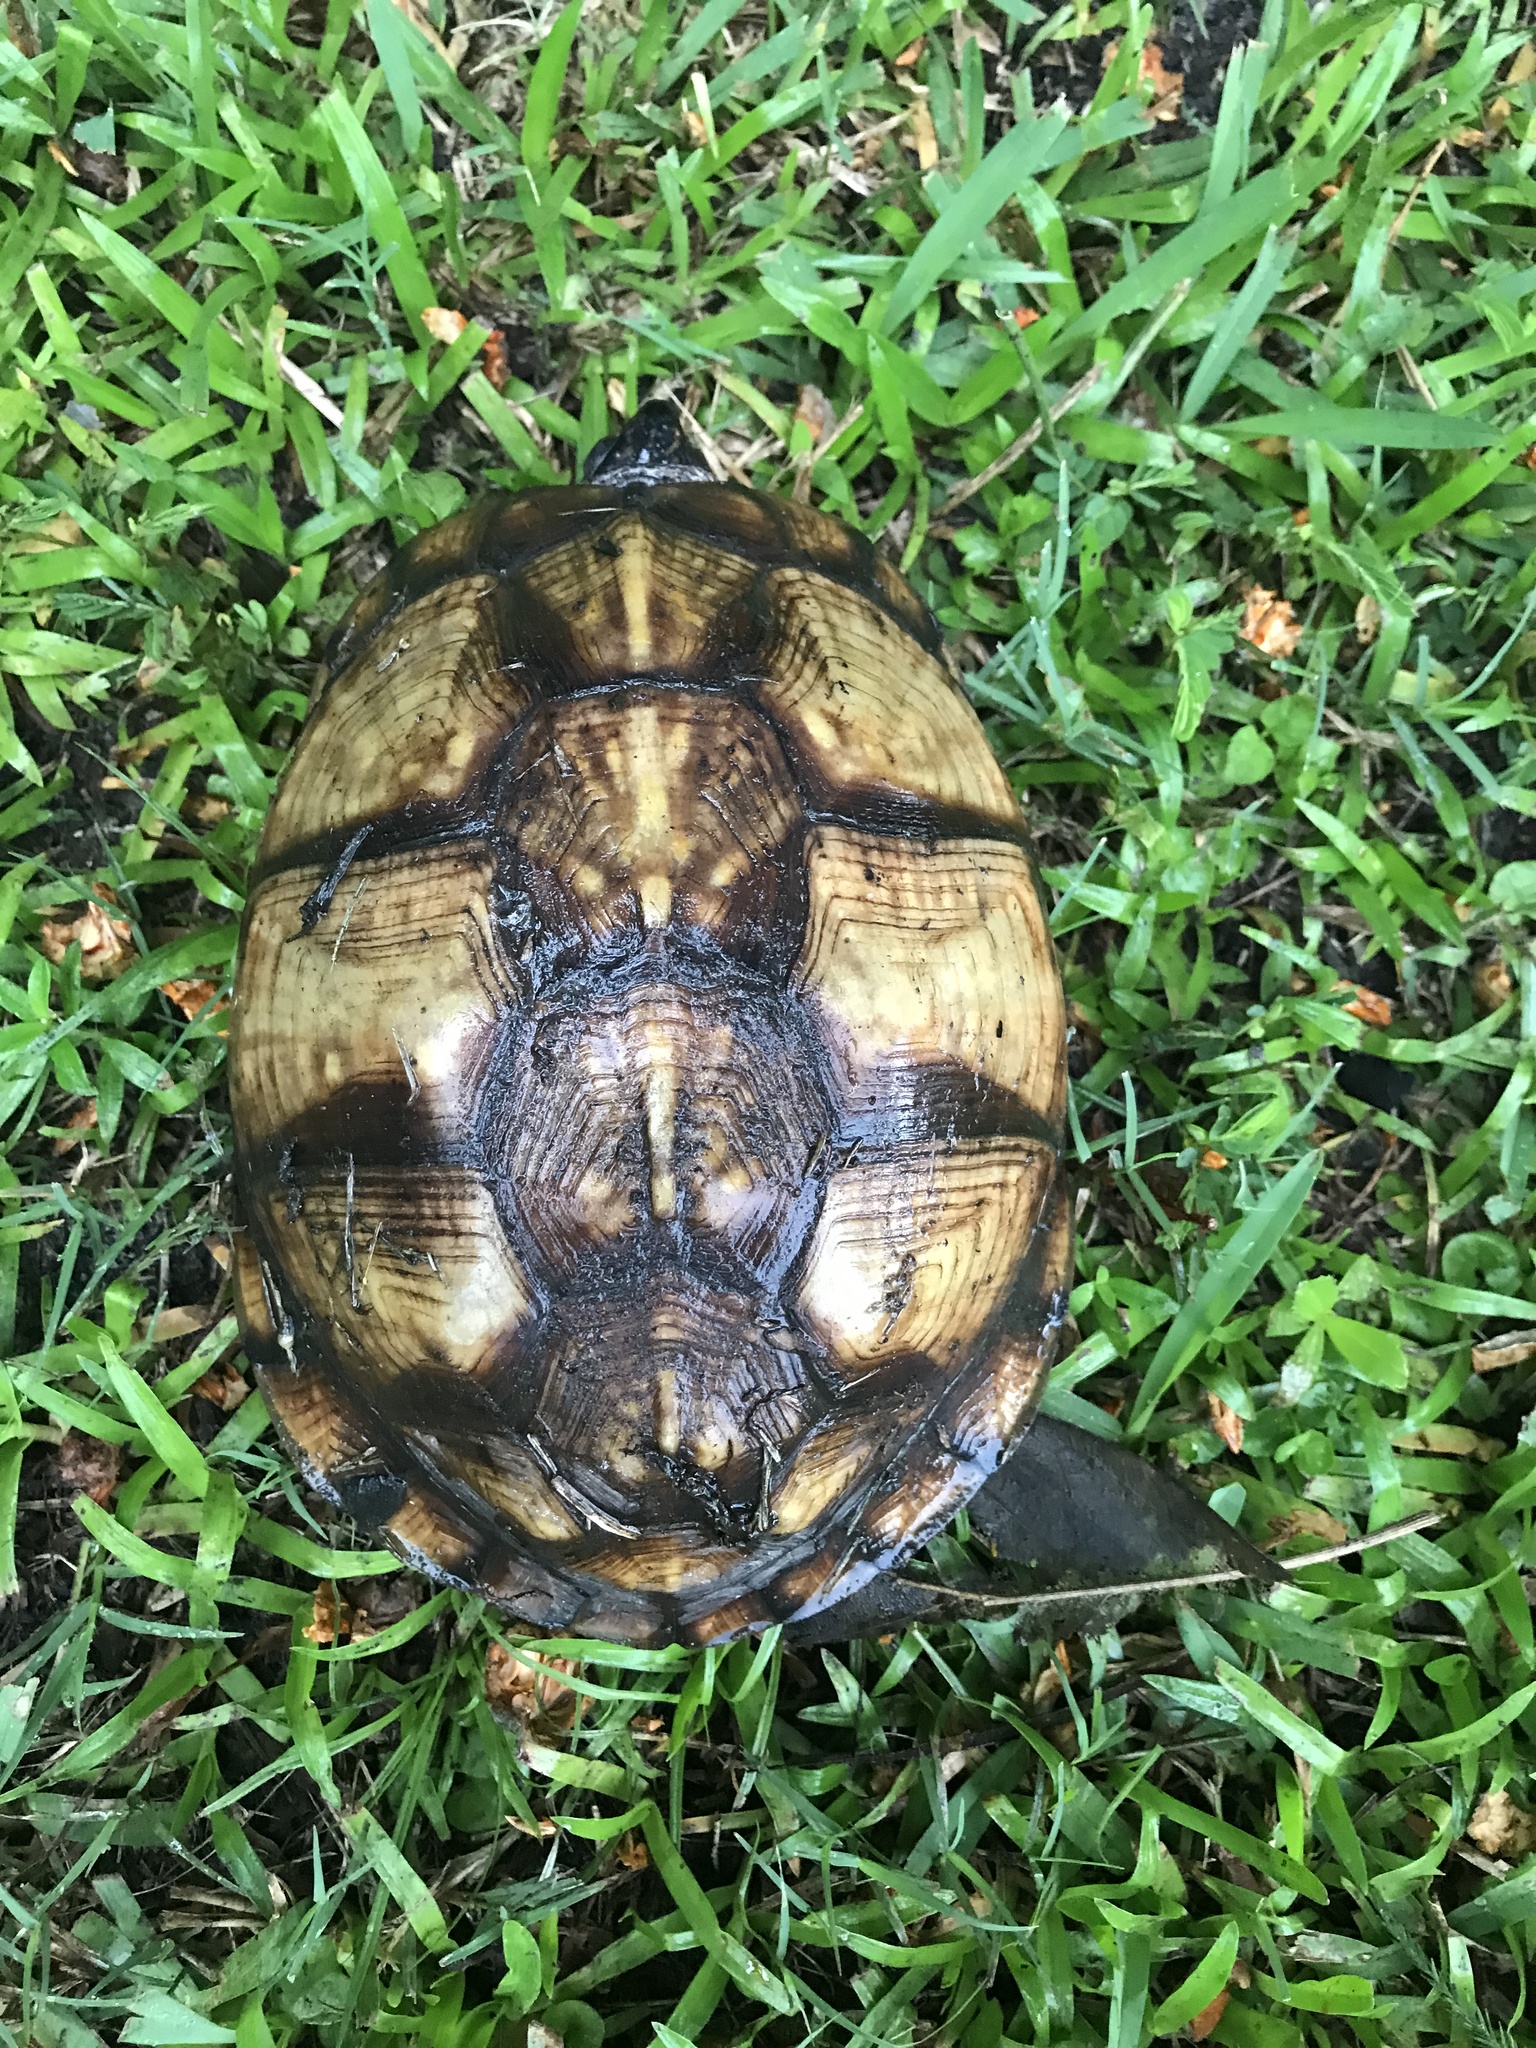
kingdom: Animalia
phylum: Chordata
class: Testudines
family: Emydidae
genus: Terrapene
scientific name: Terrapene carolina
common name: Common box turtle
